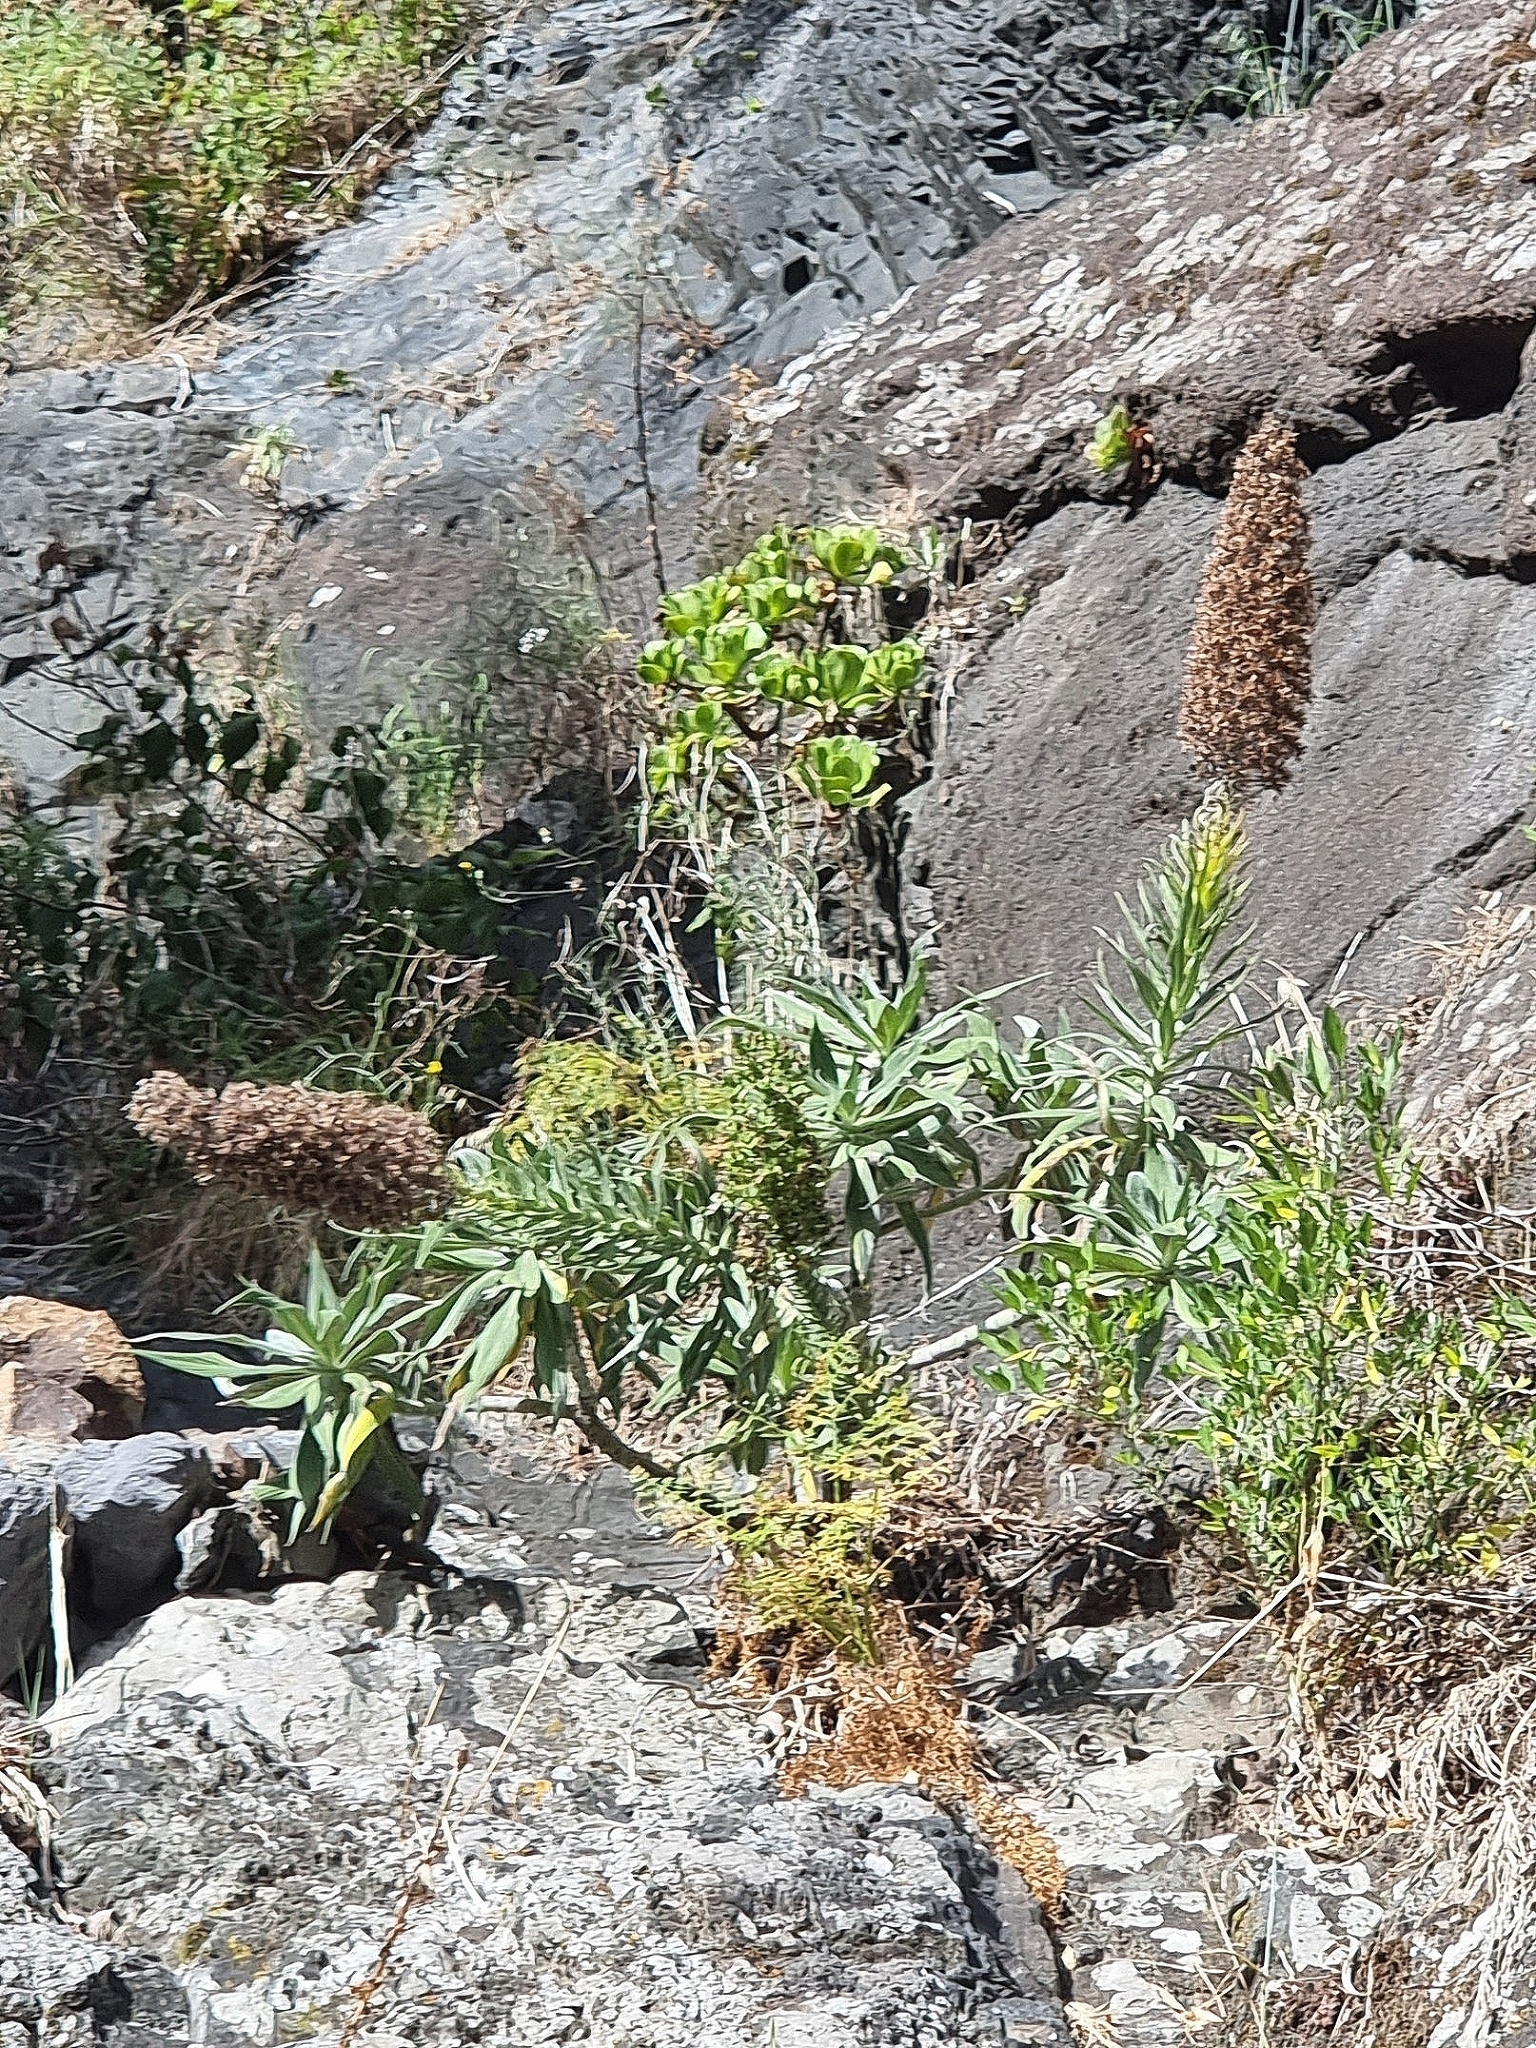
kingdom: Plantae
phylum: Tracheophyta
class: Magnoliopsida
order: Boraginales
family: Boraginaceae
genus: Echium
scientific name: Echium candicans
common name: Pride of madeira
